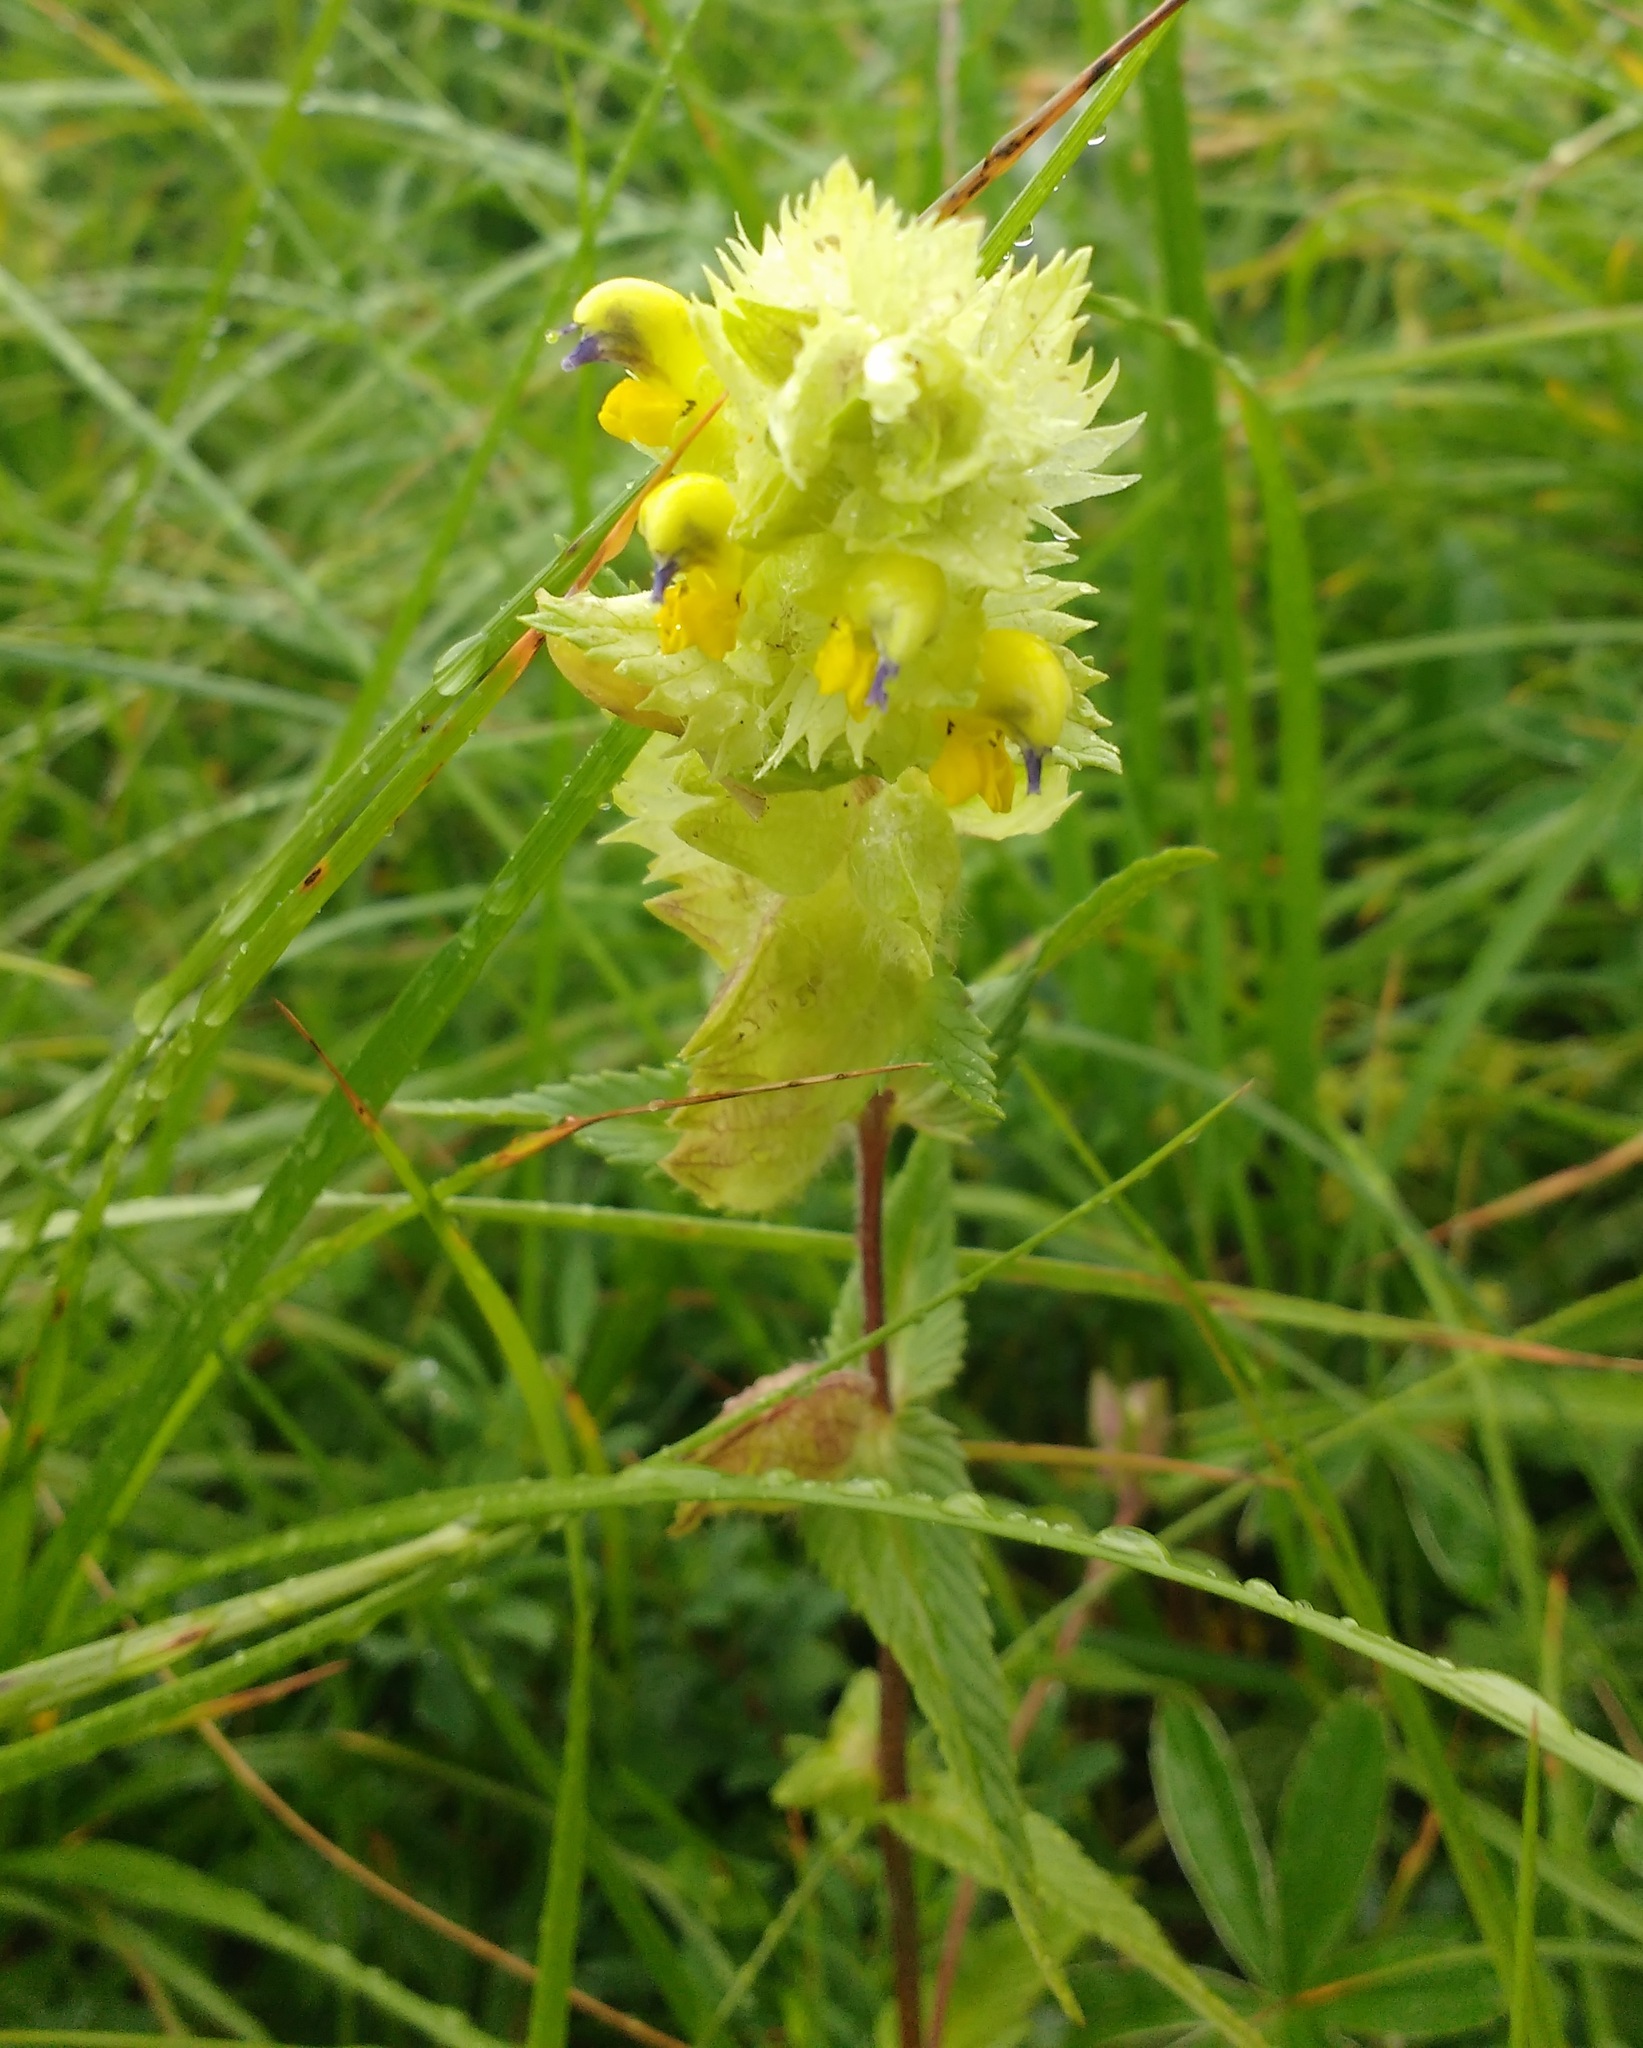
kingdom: Plantae
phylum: Tracheophyta
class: Magnoliopsida
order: Lamiales
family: Orobanchaceae
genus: Rhinanthus
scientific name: Rhinanthus alectorolophus
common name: Greater yellow-rattle
